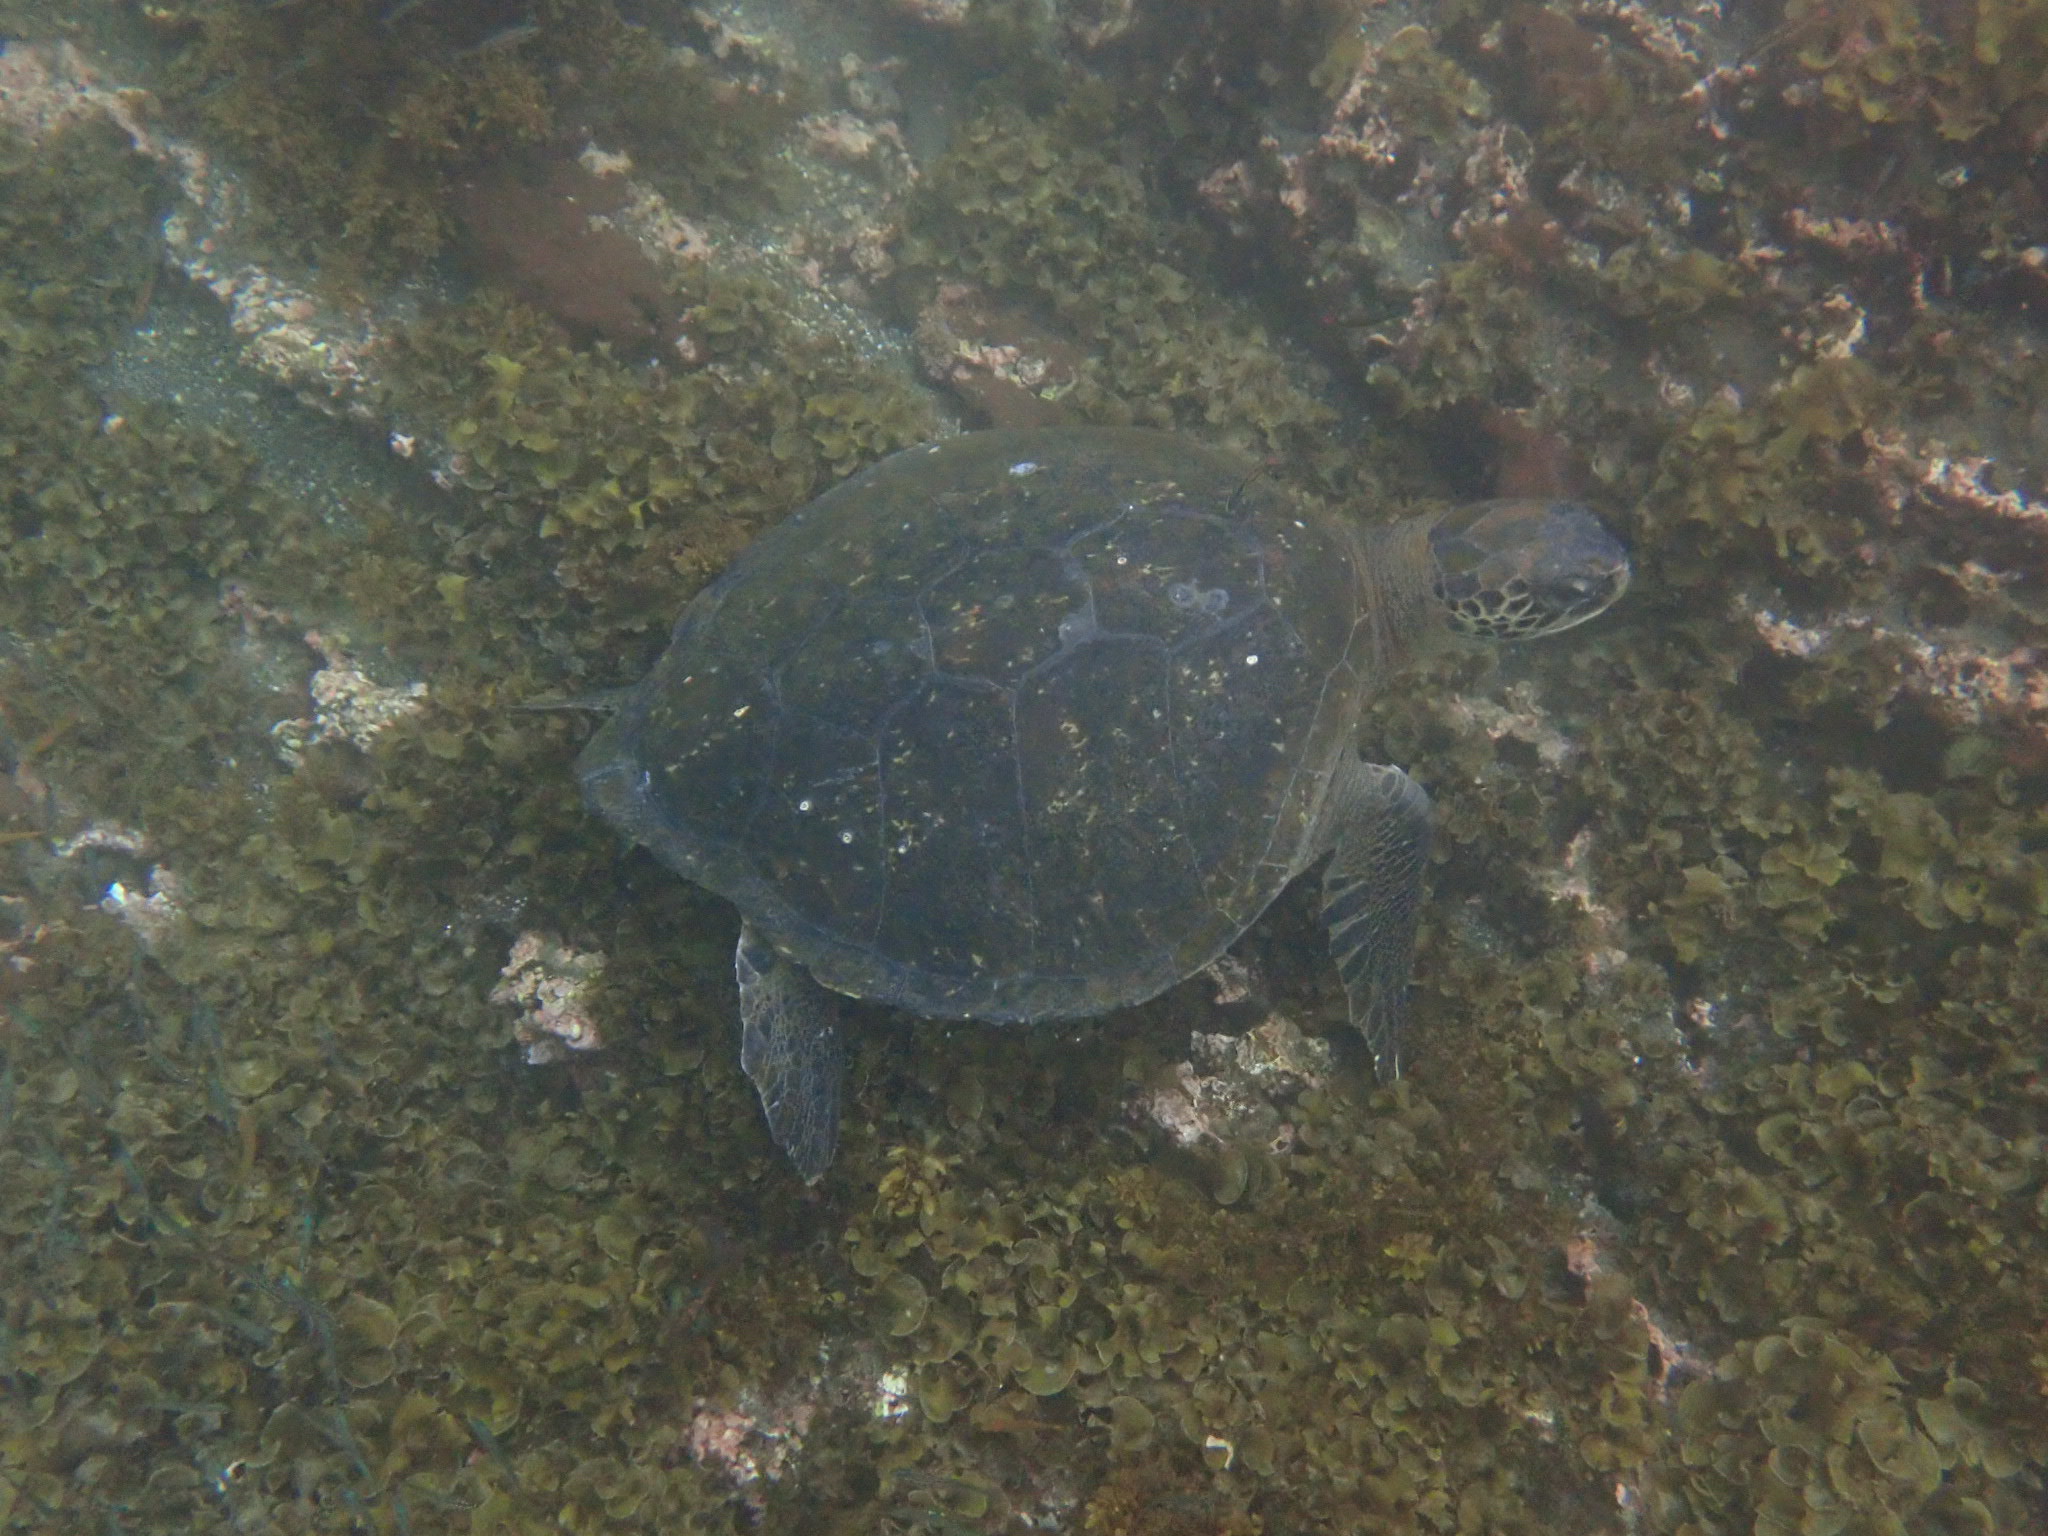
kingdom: Animalia
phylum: Chordata
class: Testudines
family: Cheloniidae
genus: Chelonia
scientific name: Chelonia mydas
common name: Green turtle
